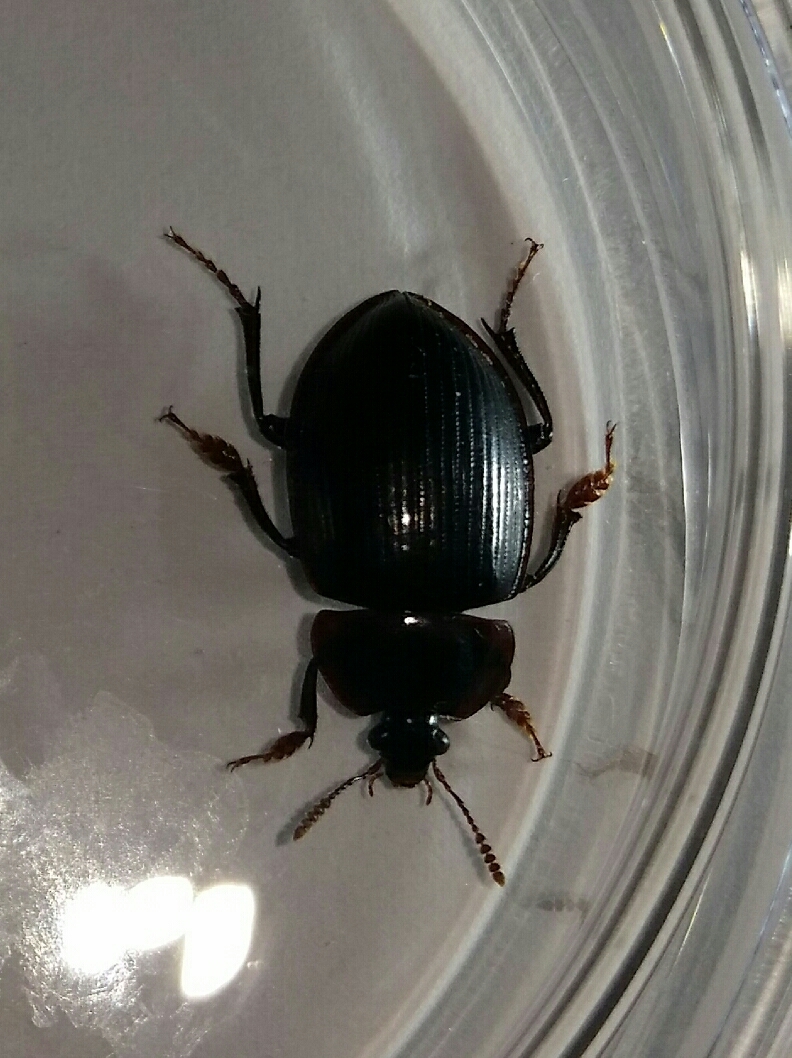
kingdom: Animalia
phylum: Arthropoda
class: Insecta
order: Coleoptera
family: Agyrtidae
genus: Necrophilus
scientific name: Necrophilus hydrophiloides
